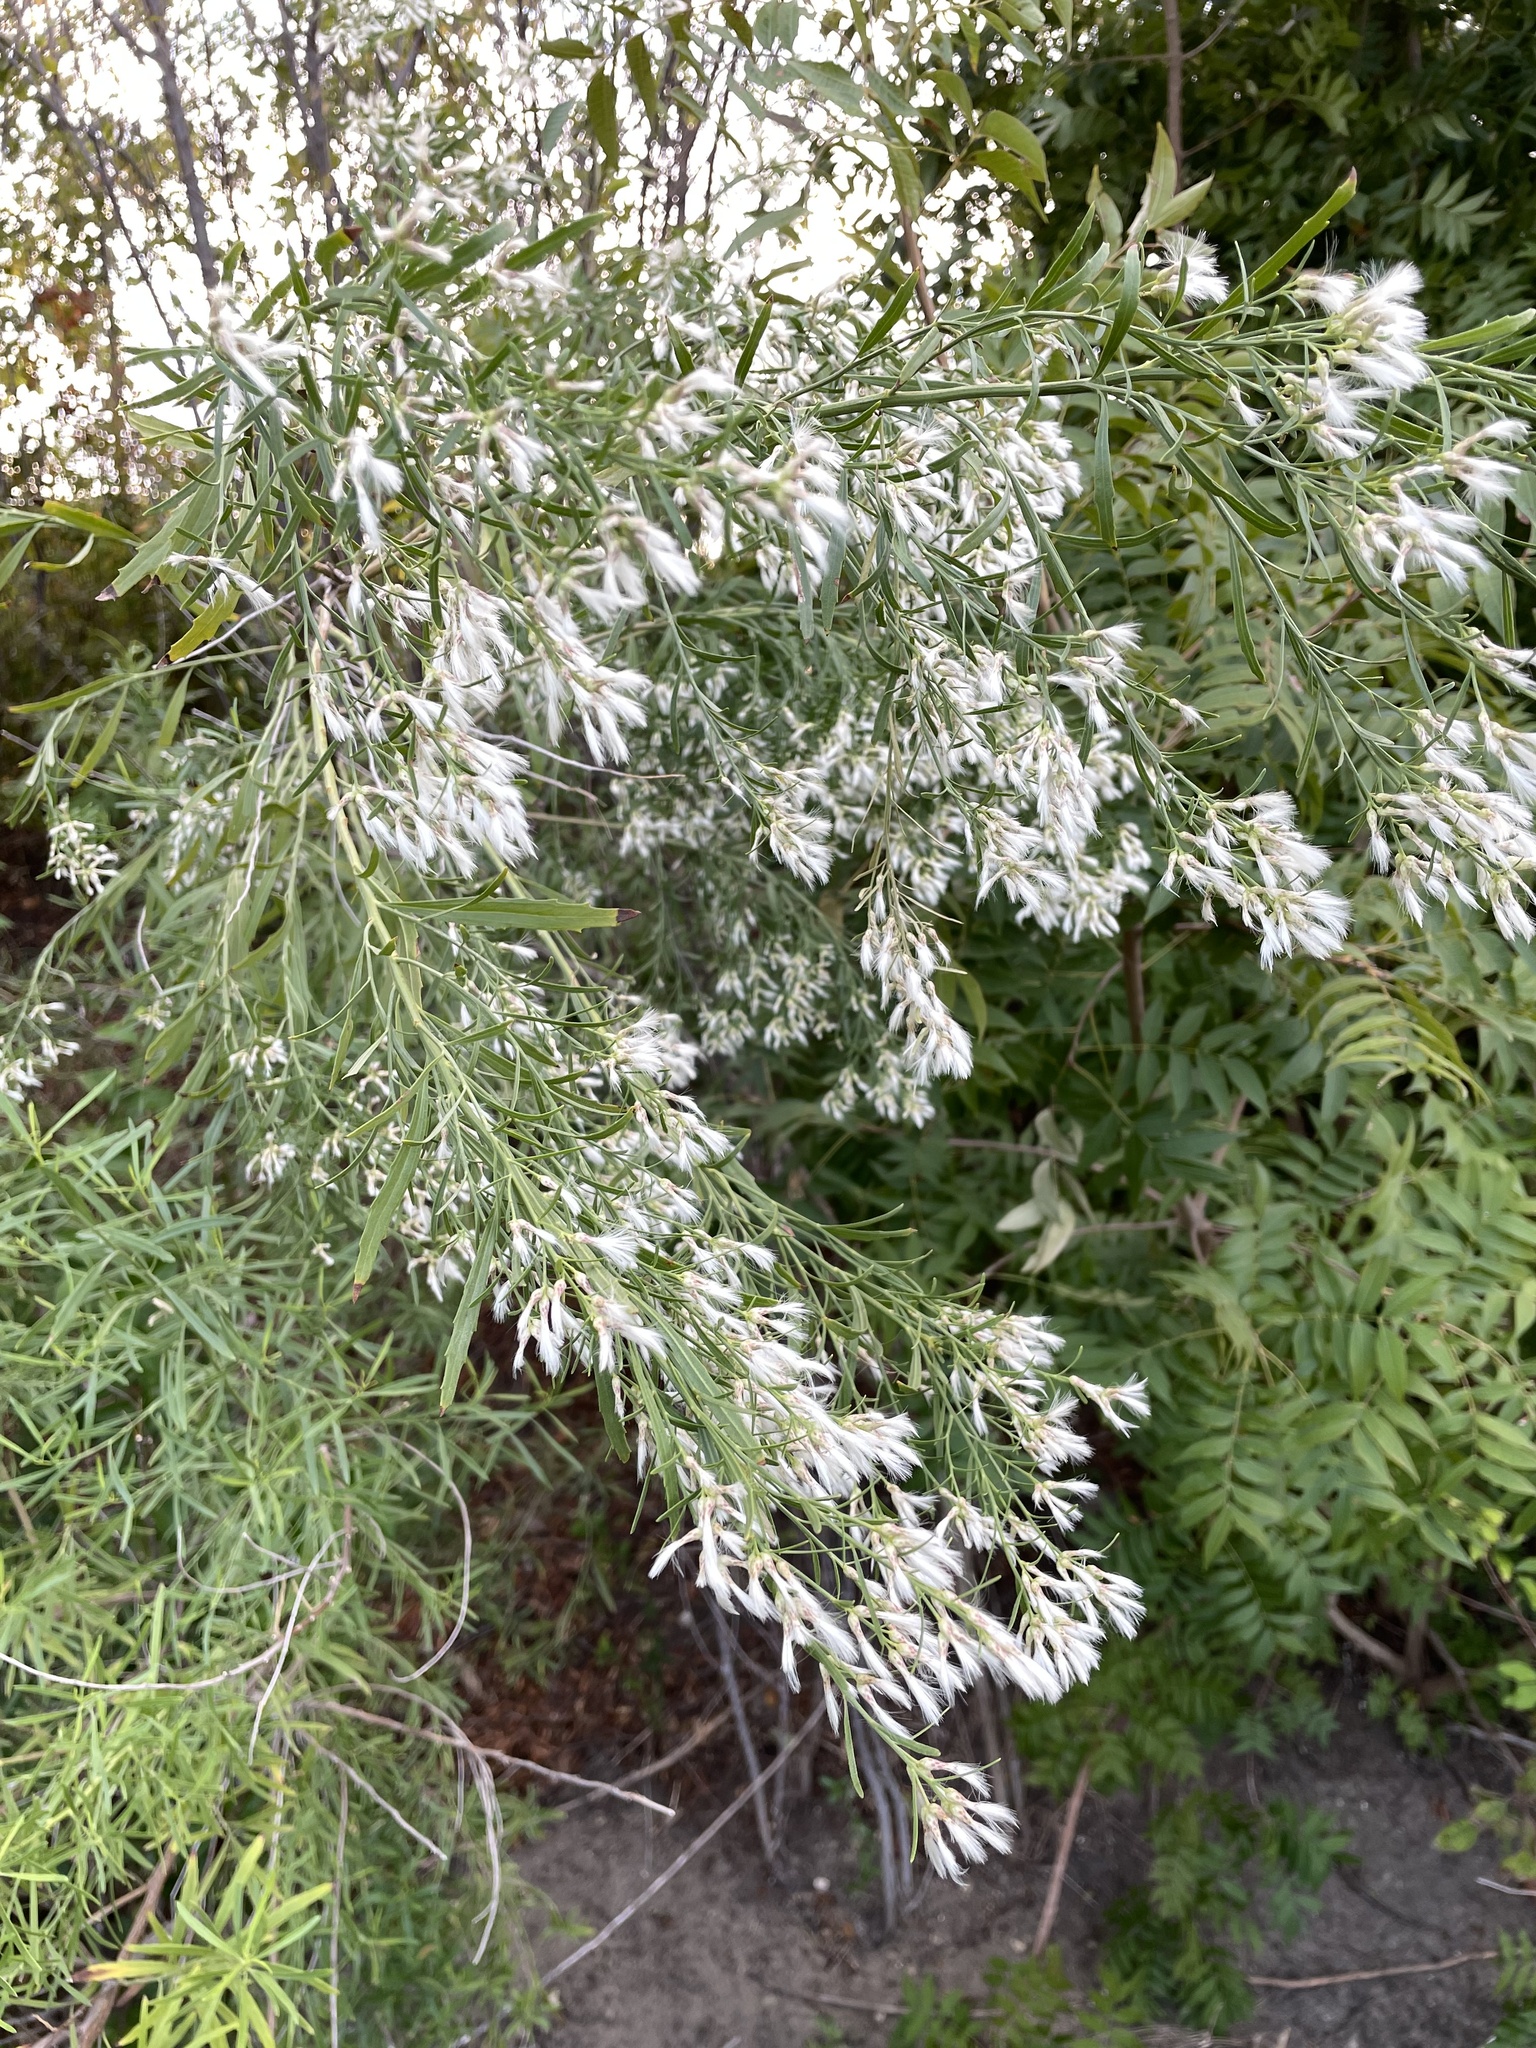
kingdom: Plantae
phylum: Tracheophyta
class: Magnoliopsida
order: Asterales
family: Asteraceae
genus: Baccharis
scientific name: Baccharis neglecta
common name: Roosevelt-weed
